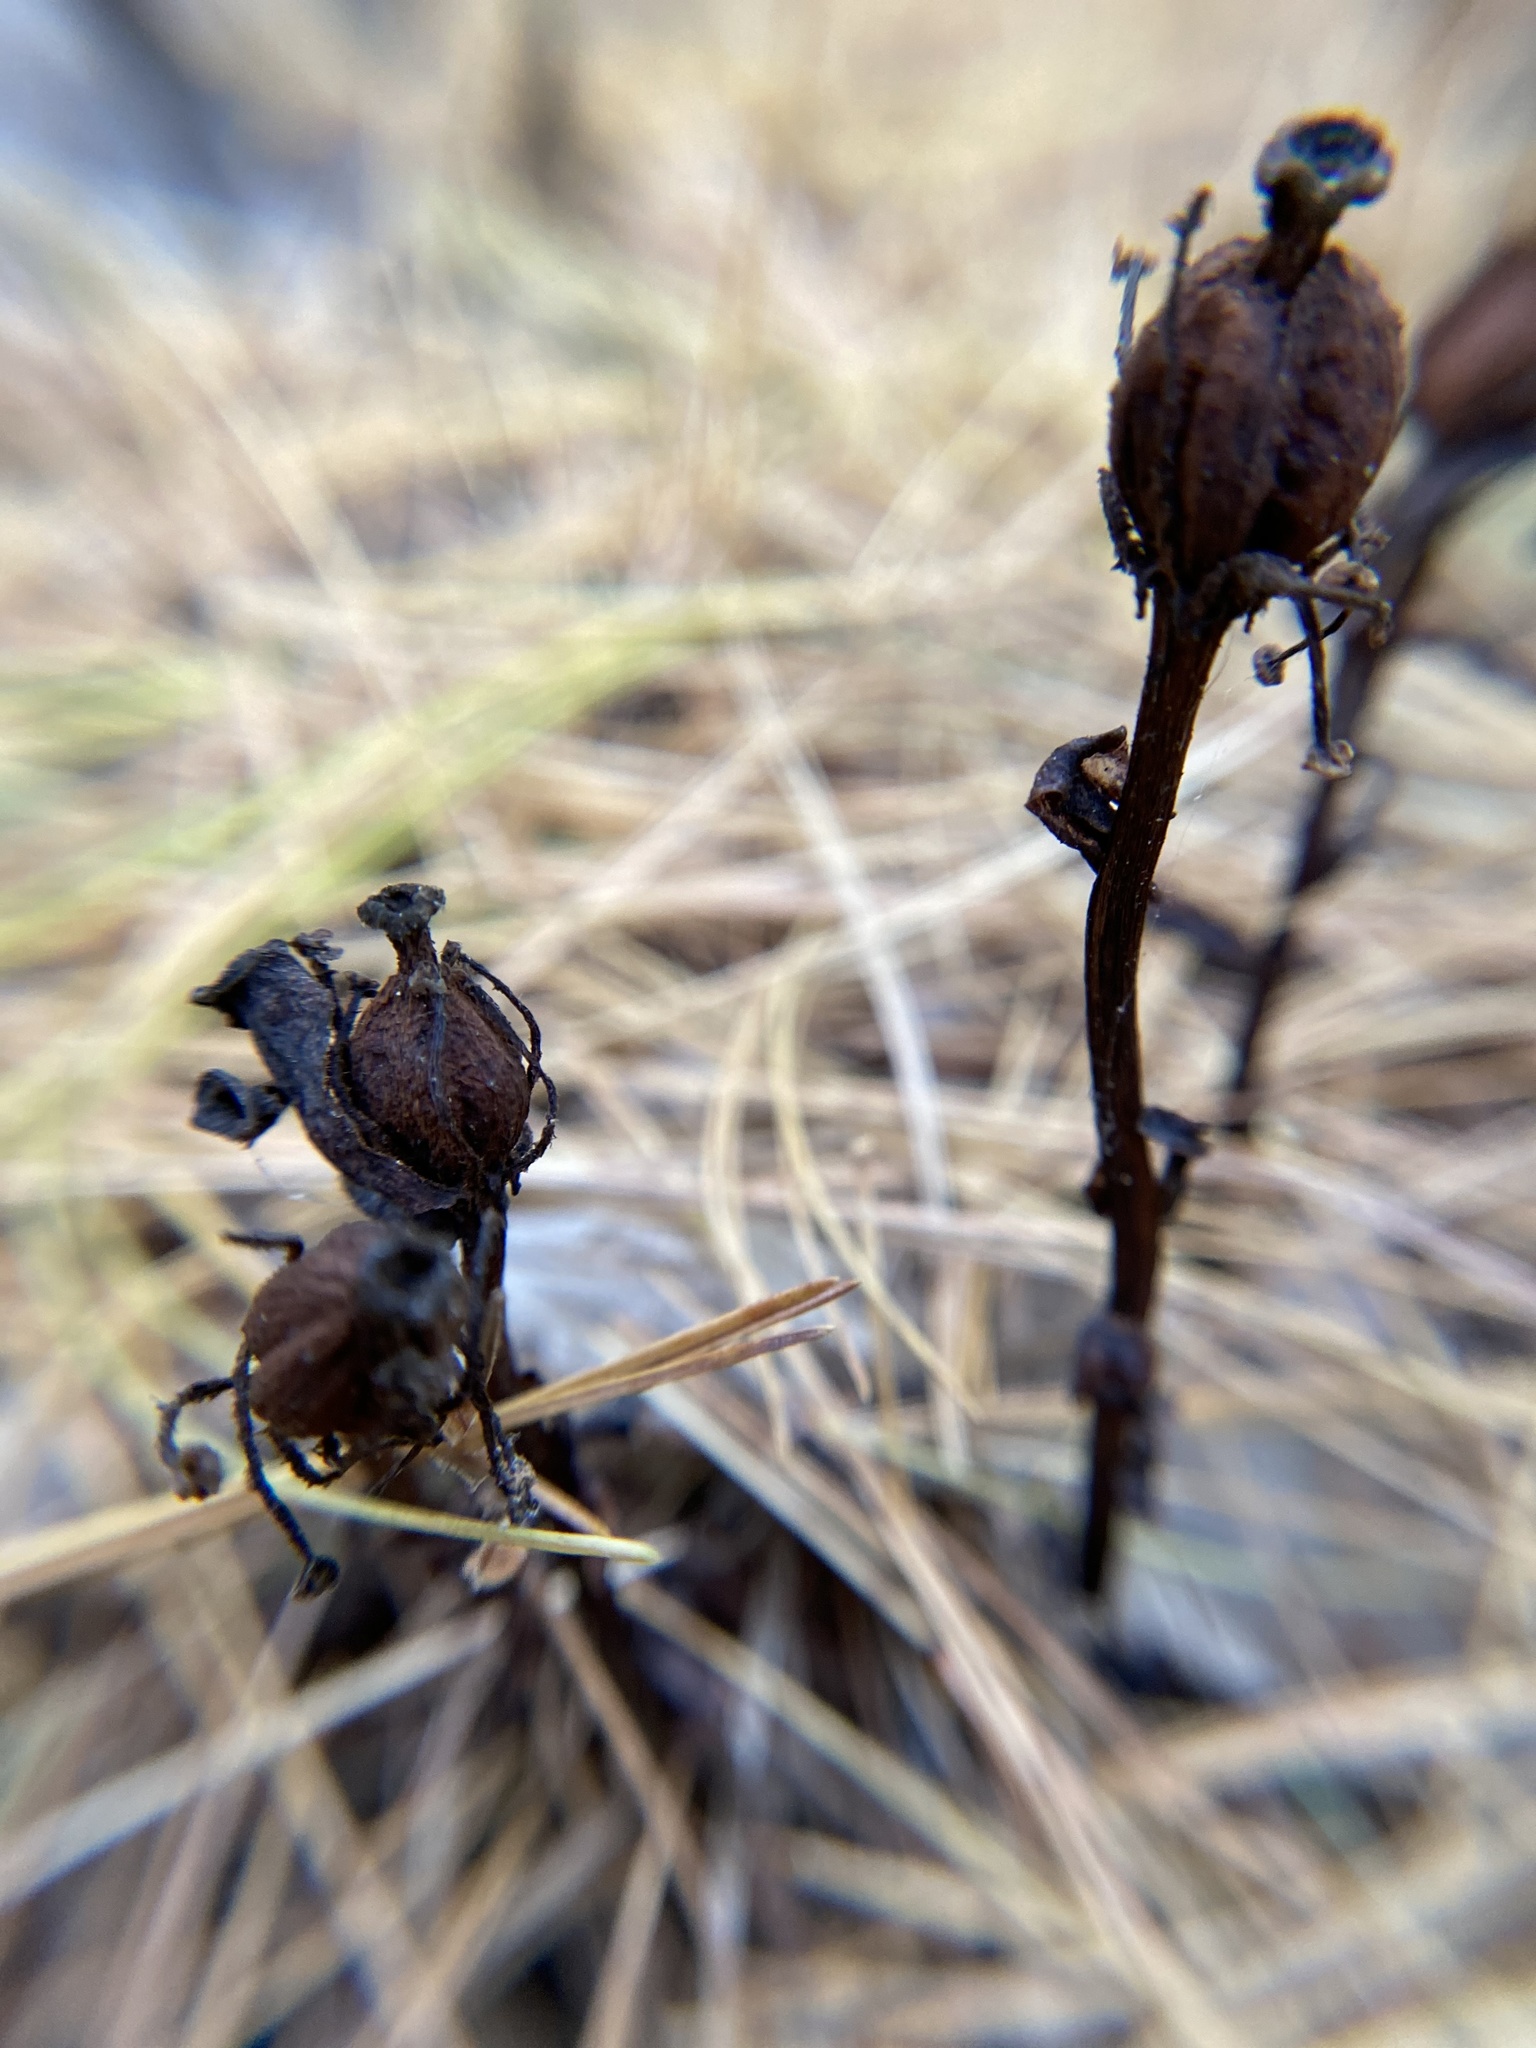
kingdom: Plantae
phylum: Tracheophyta
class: Magnoliopsida
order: Ericales
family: Ericaceae
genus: Hypopitys
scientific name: Hypopitys monotropa
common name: Yellow bird's-nest
